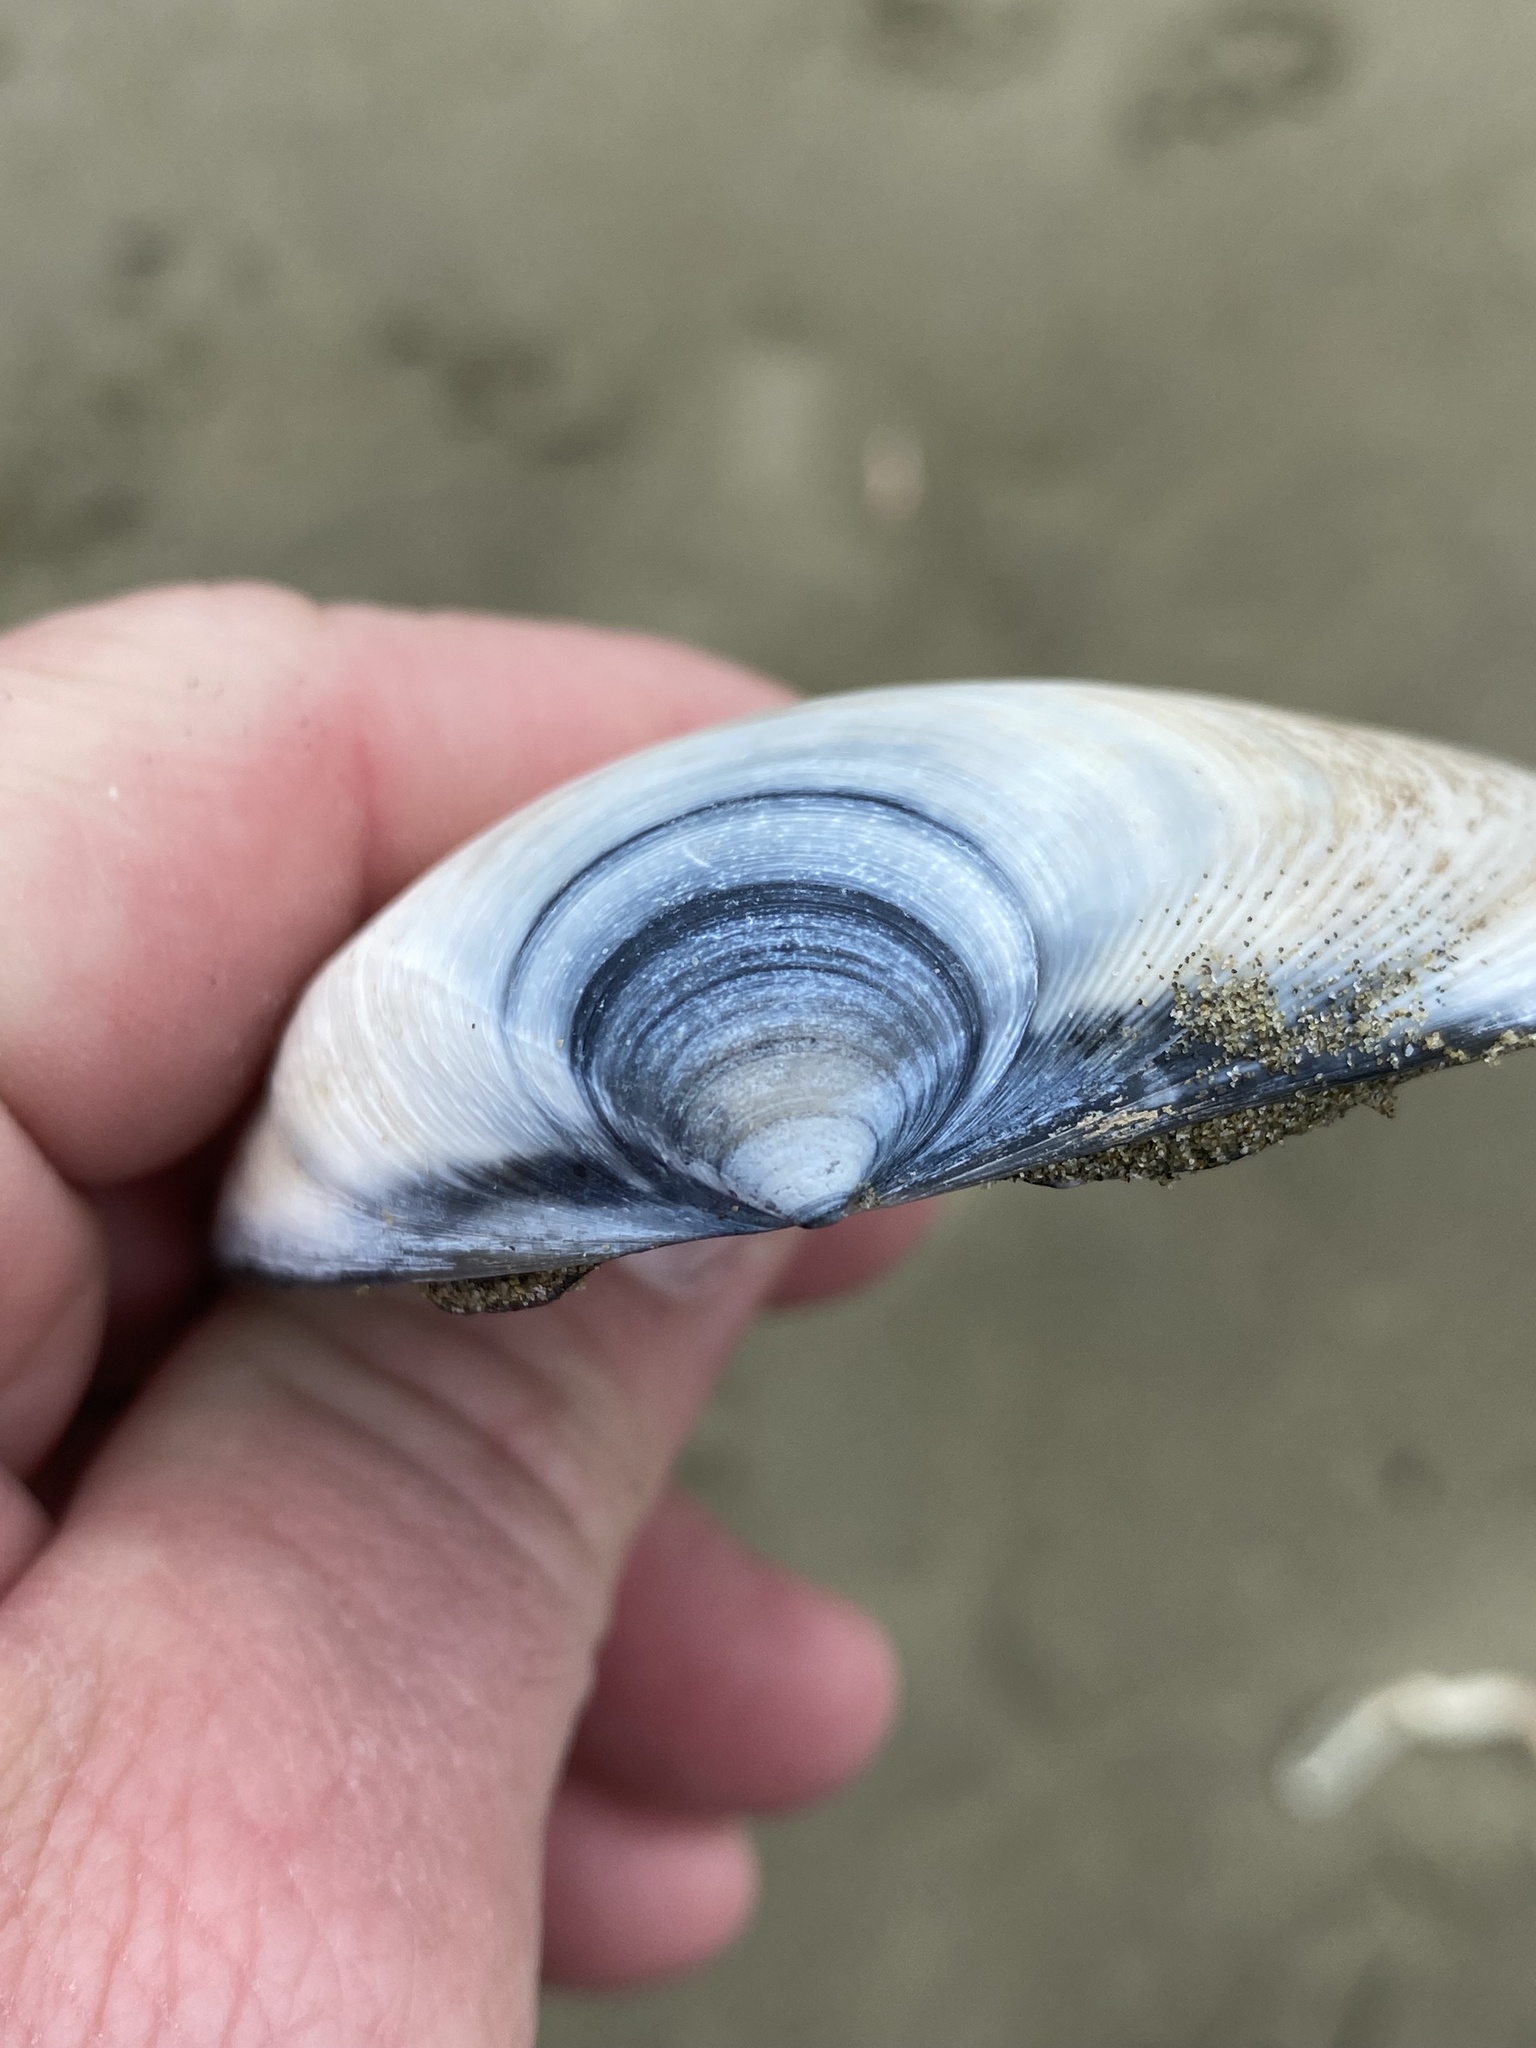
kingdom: Animalia
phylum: Mollusca
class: Bivalvia
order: Venerida
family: Mactridae
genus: Spisula
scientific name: Spisula murchisoni
